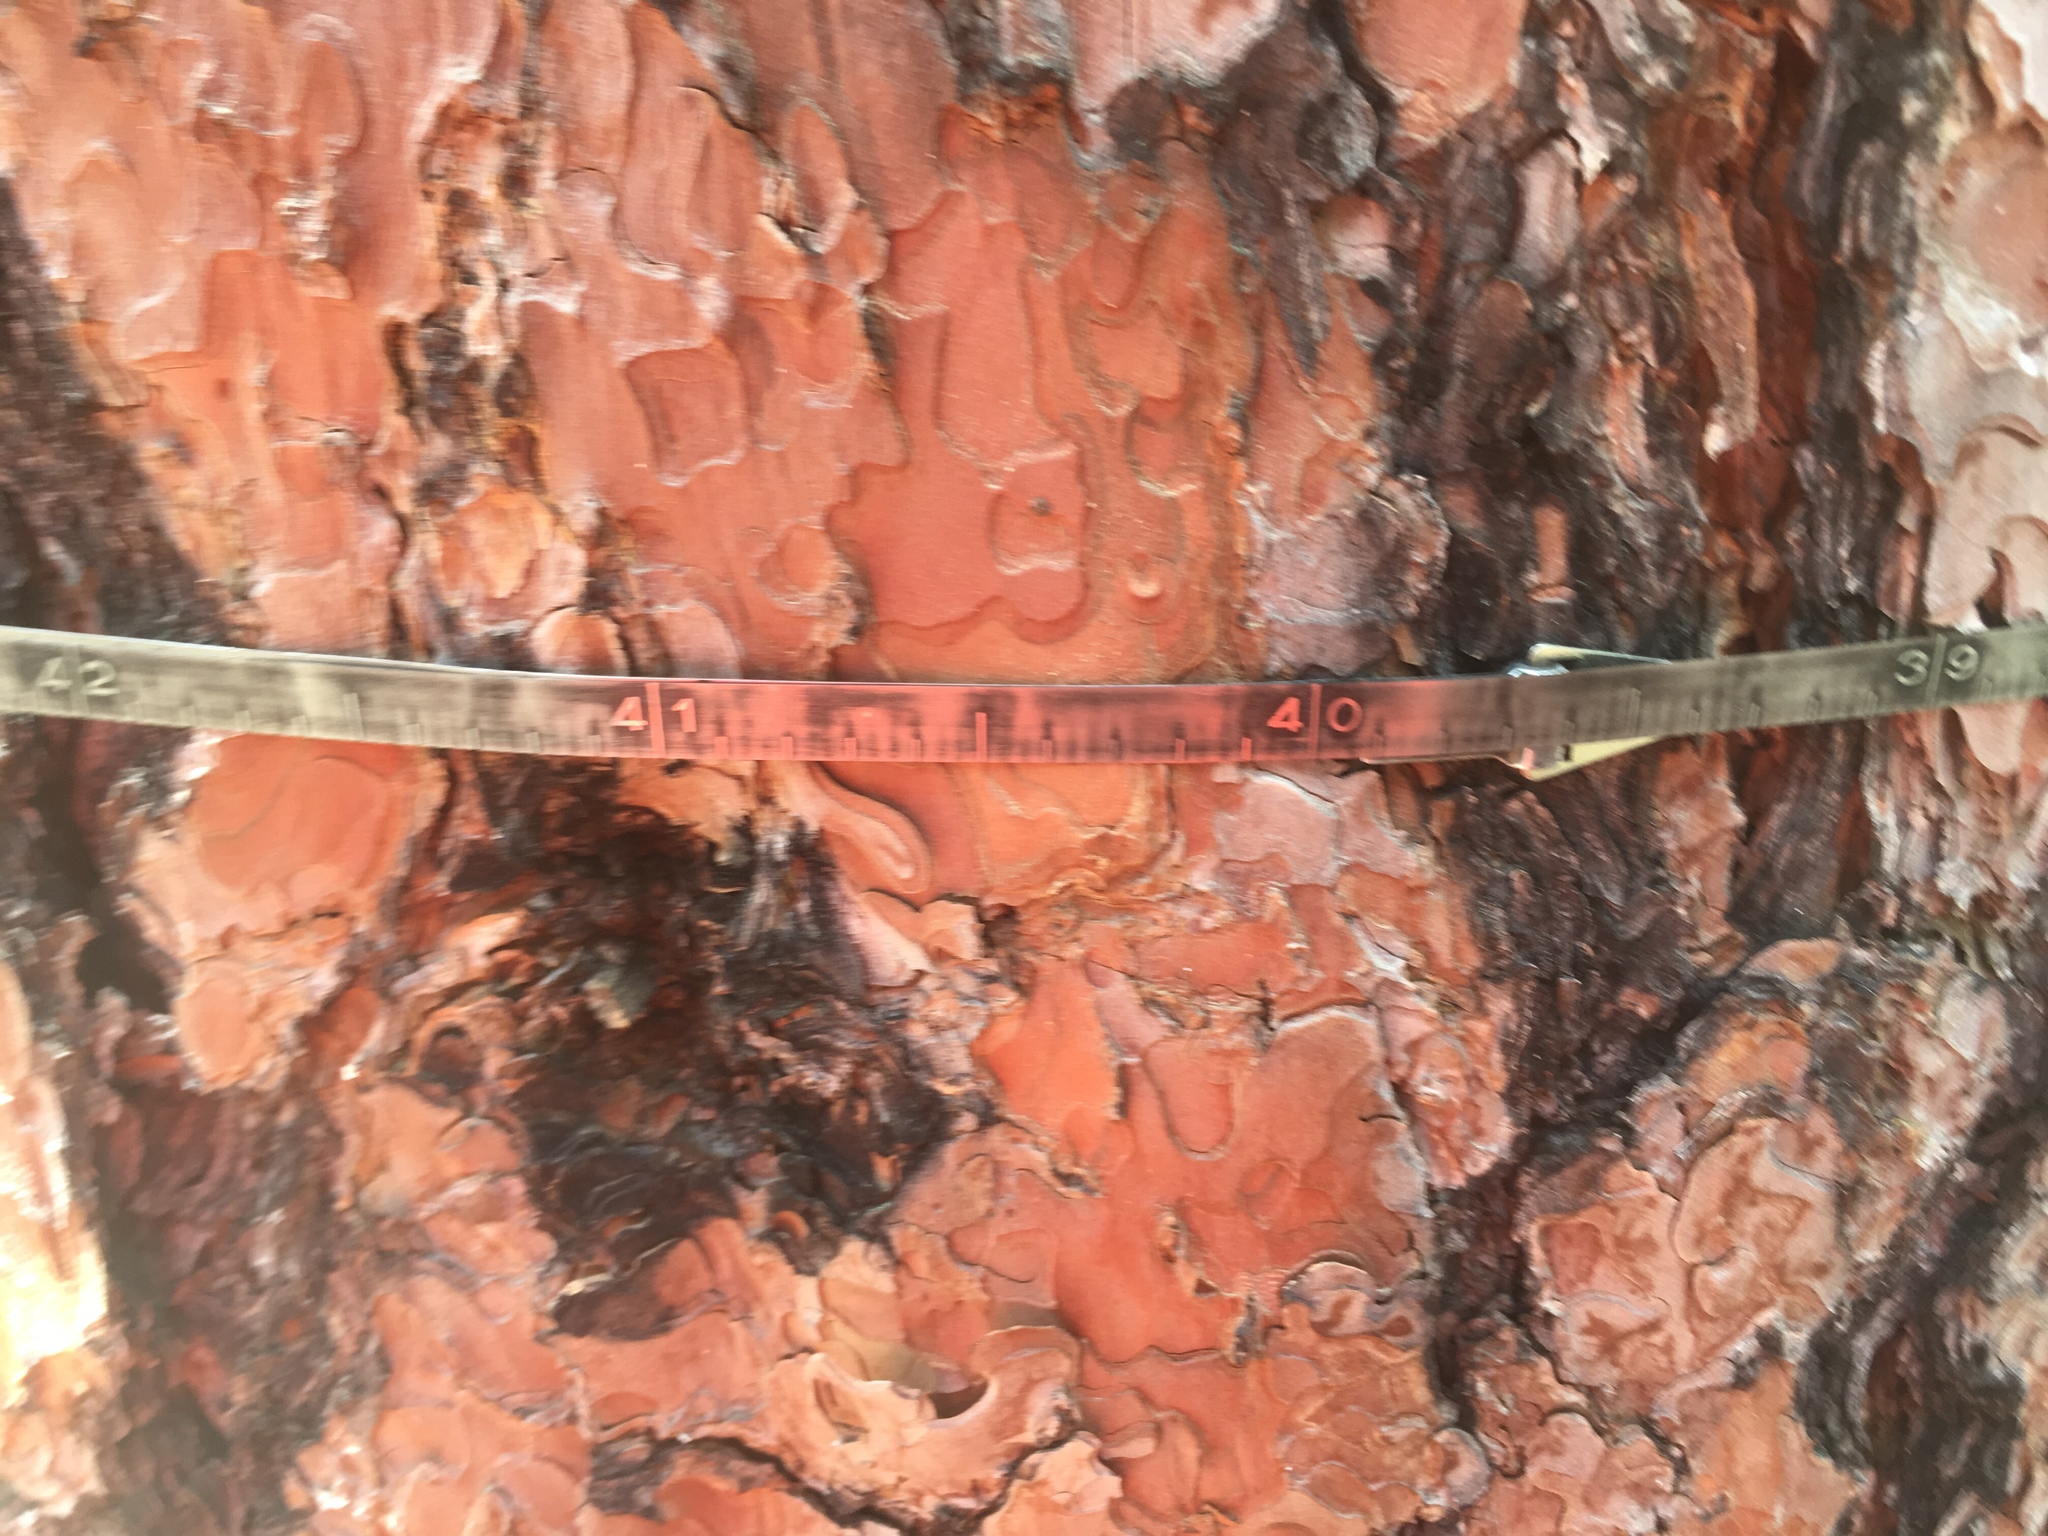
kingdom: Plantae
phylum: Tracheophyta
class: Pinopsida
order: Pinales
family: Pinaceae
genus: Pinus
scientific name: Pinus ponderosa
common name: Western yellow-pine
